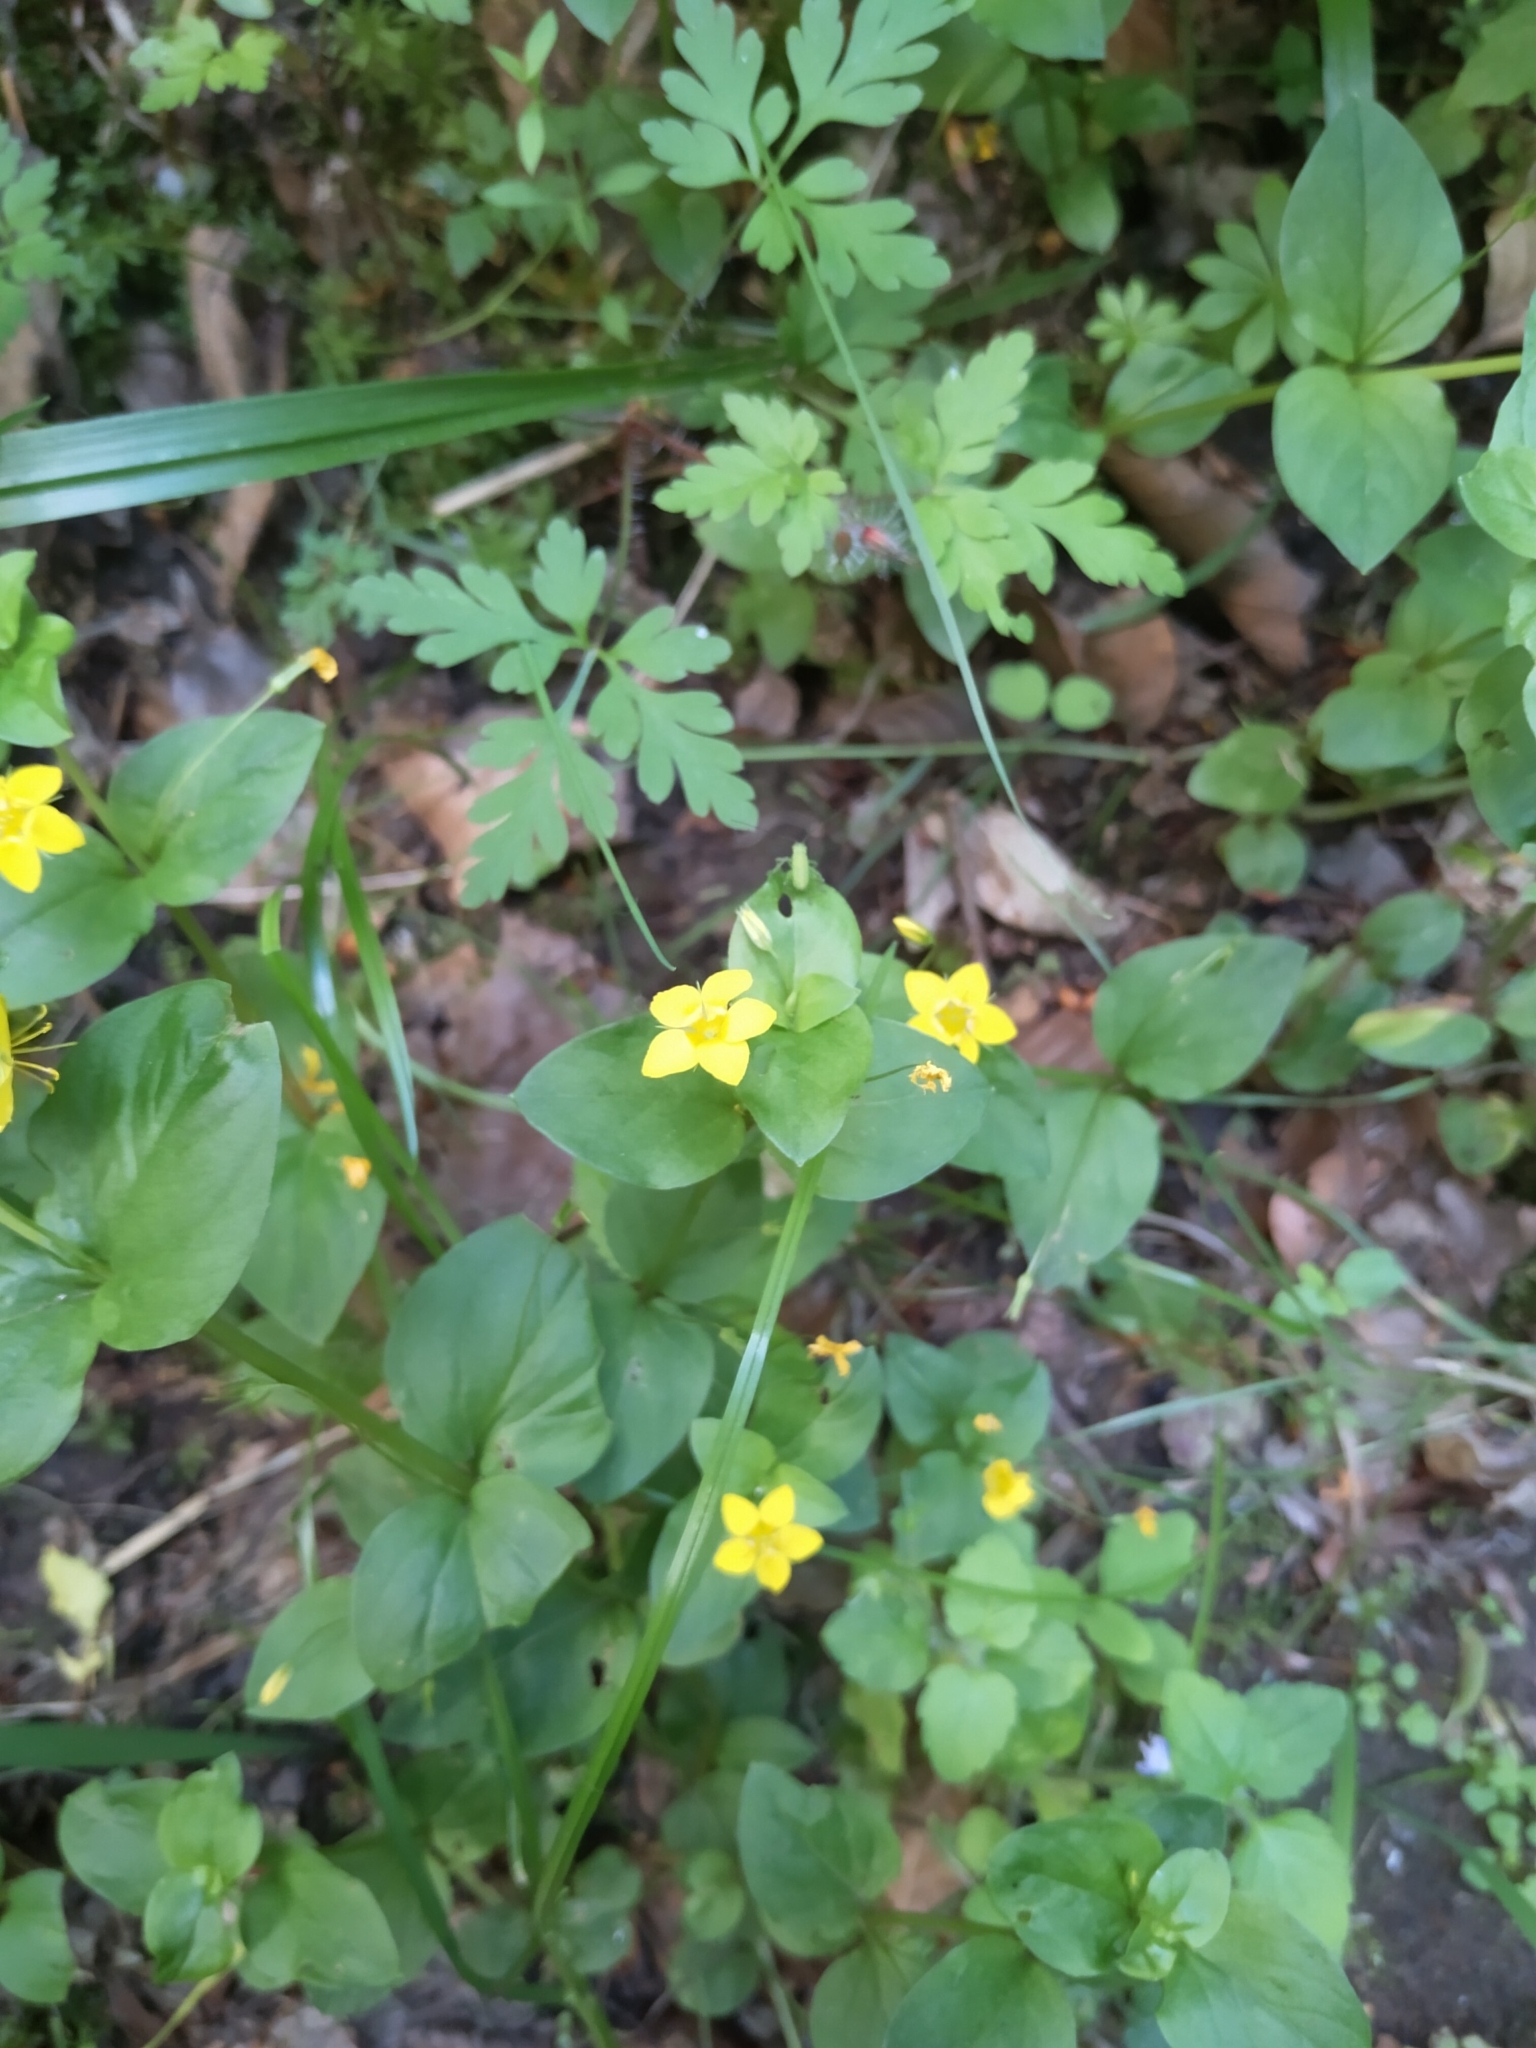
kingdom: Plantae
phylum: Tracheophyta
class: Magnoliopsida
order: Ericales
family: Primulaceae
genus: Lysimachia
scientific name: Lysimachia nemorum
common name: Yellow pimpernel
